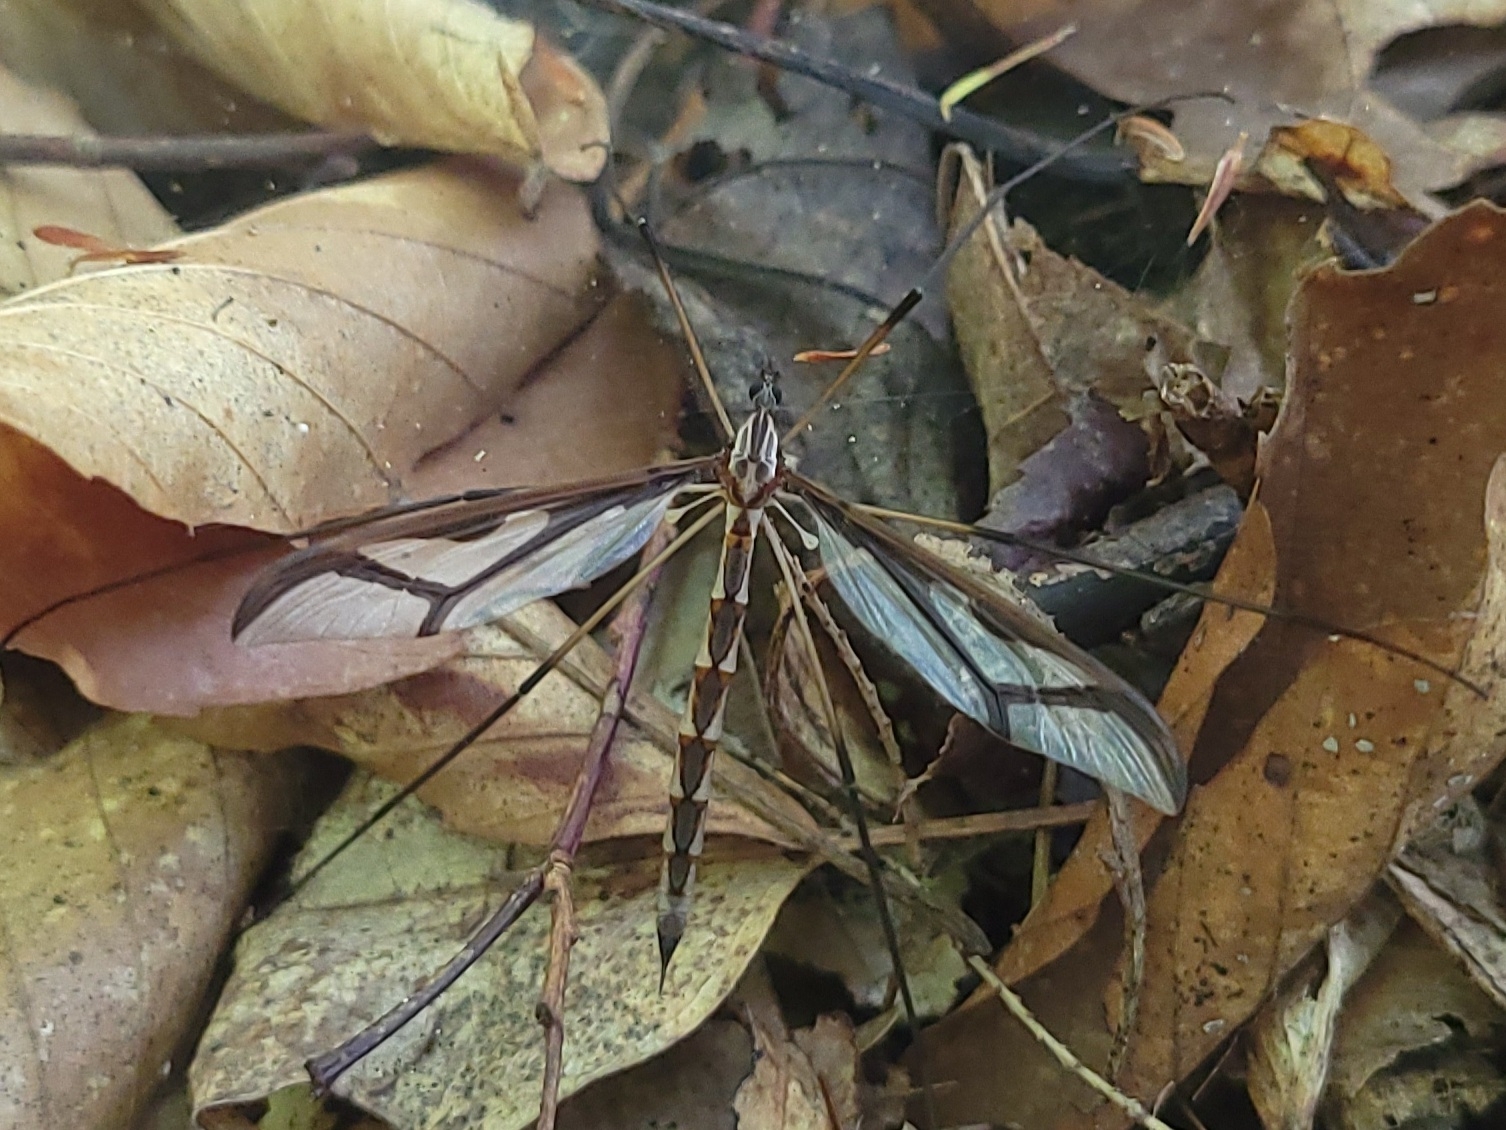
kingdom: Animalia
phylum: Arthropoda
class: Insecta
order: Diptera
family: Pediciidae
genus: Pedicia
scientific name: Pedicia albivitta
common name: Giant eastern crane fly
